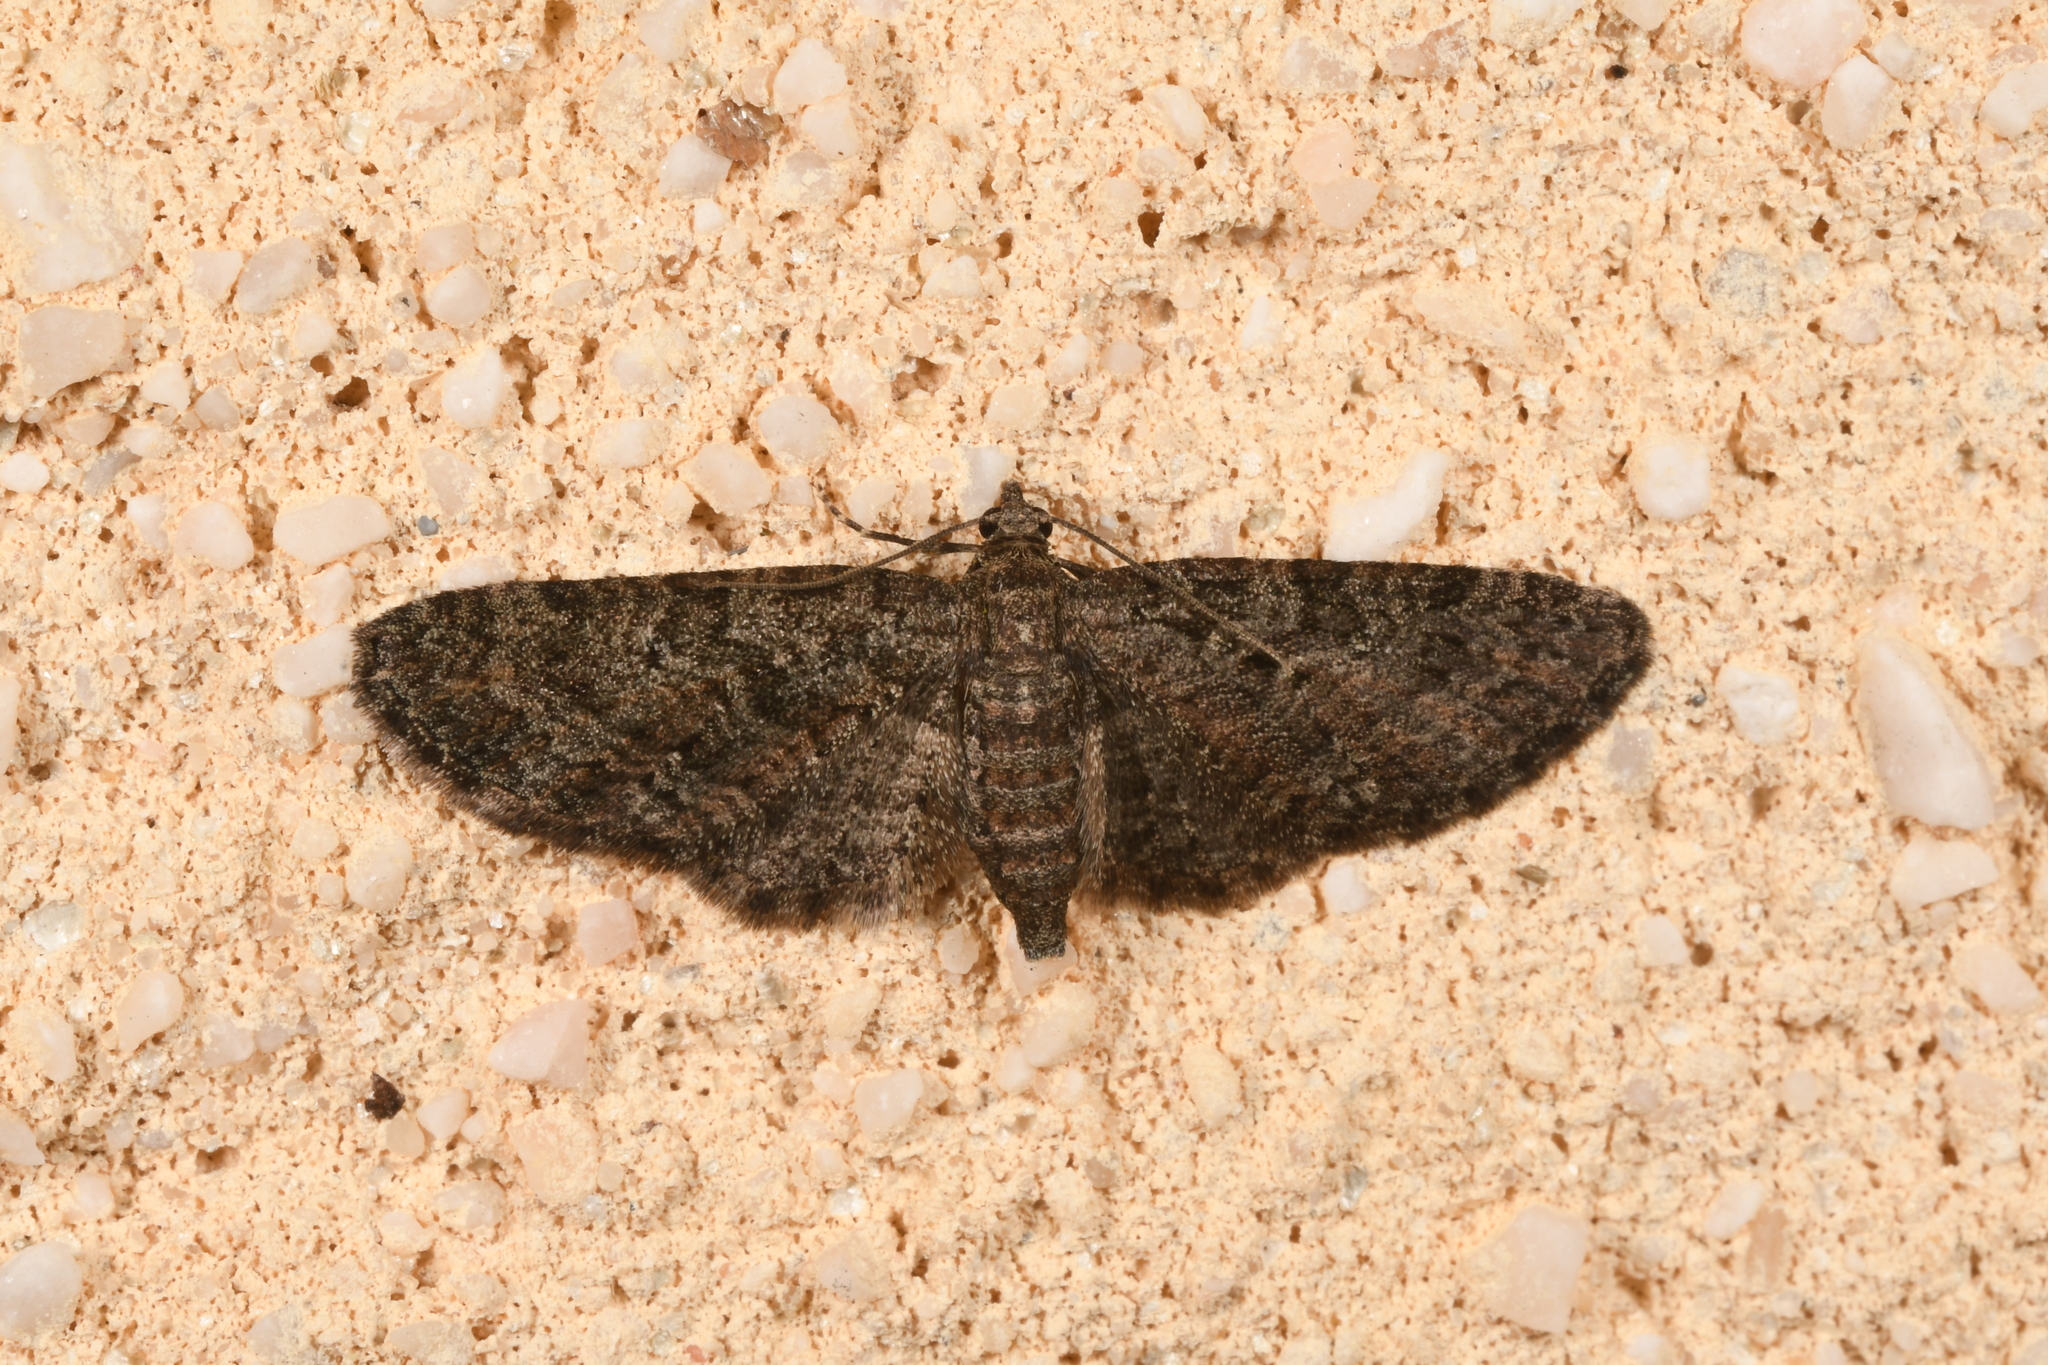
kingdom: Animalia
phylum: Arthropoda
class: Insecta
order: Lepidoptera
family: Geometridae
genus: Eupithecia
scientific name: Eupithecia abbreviata
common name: Brindled pug
